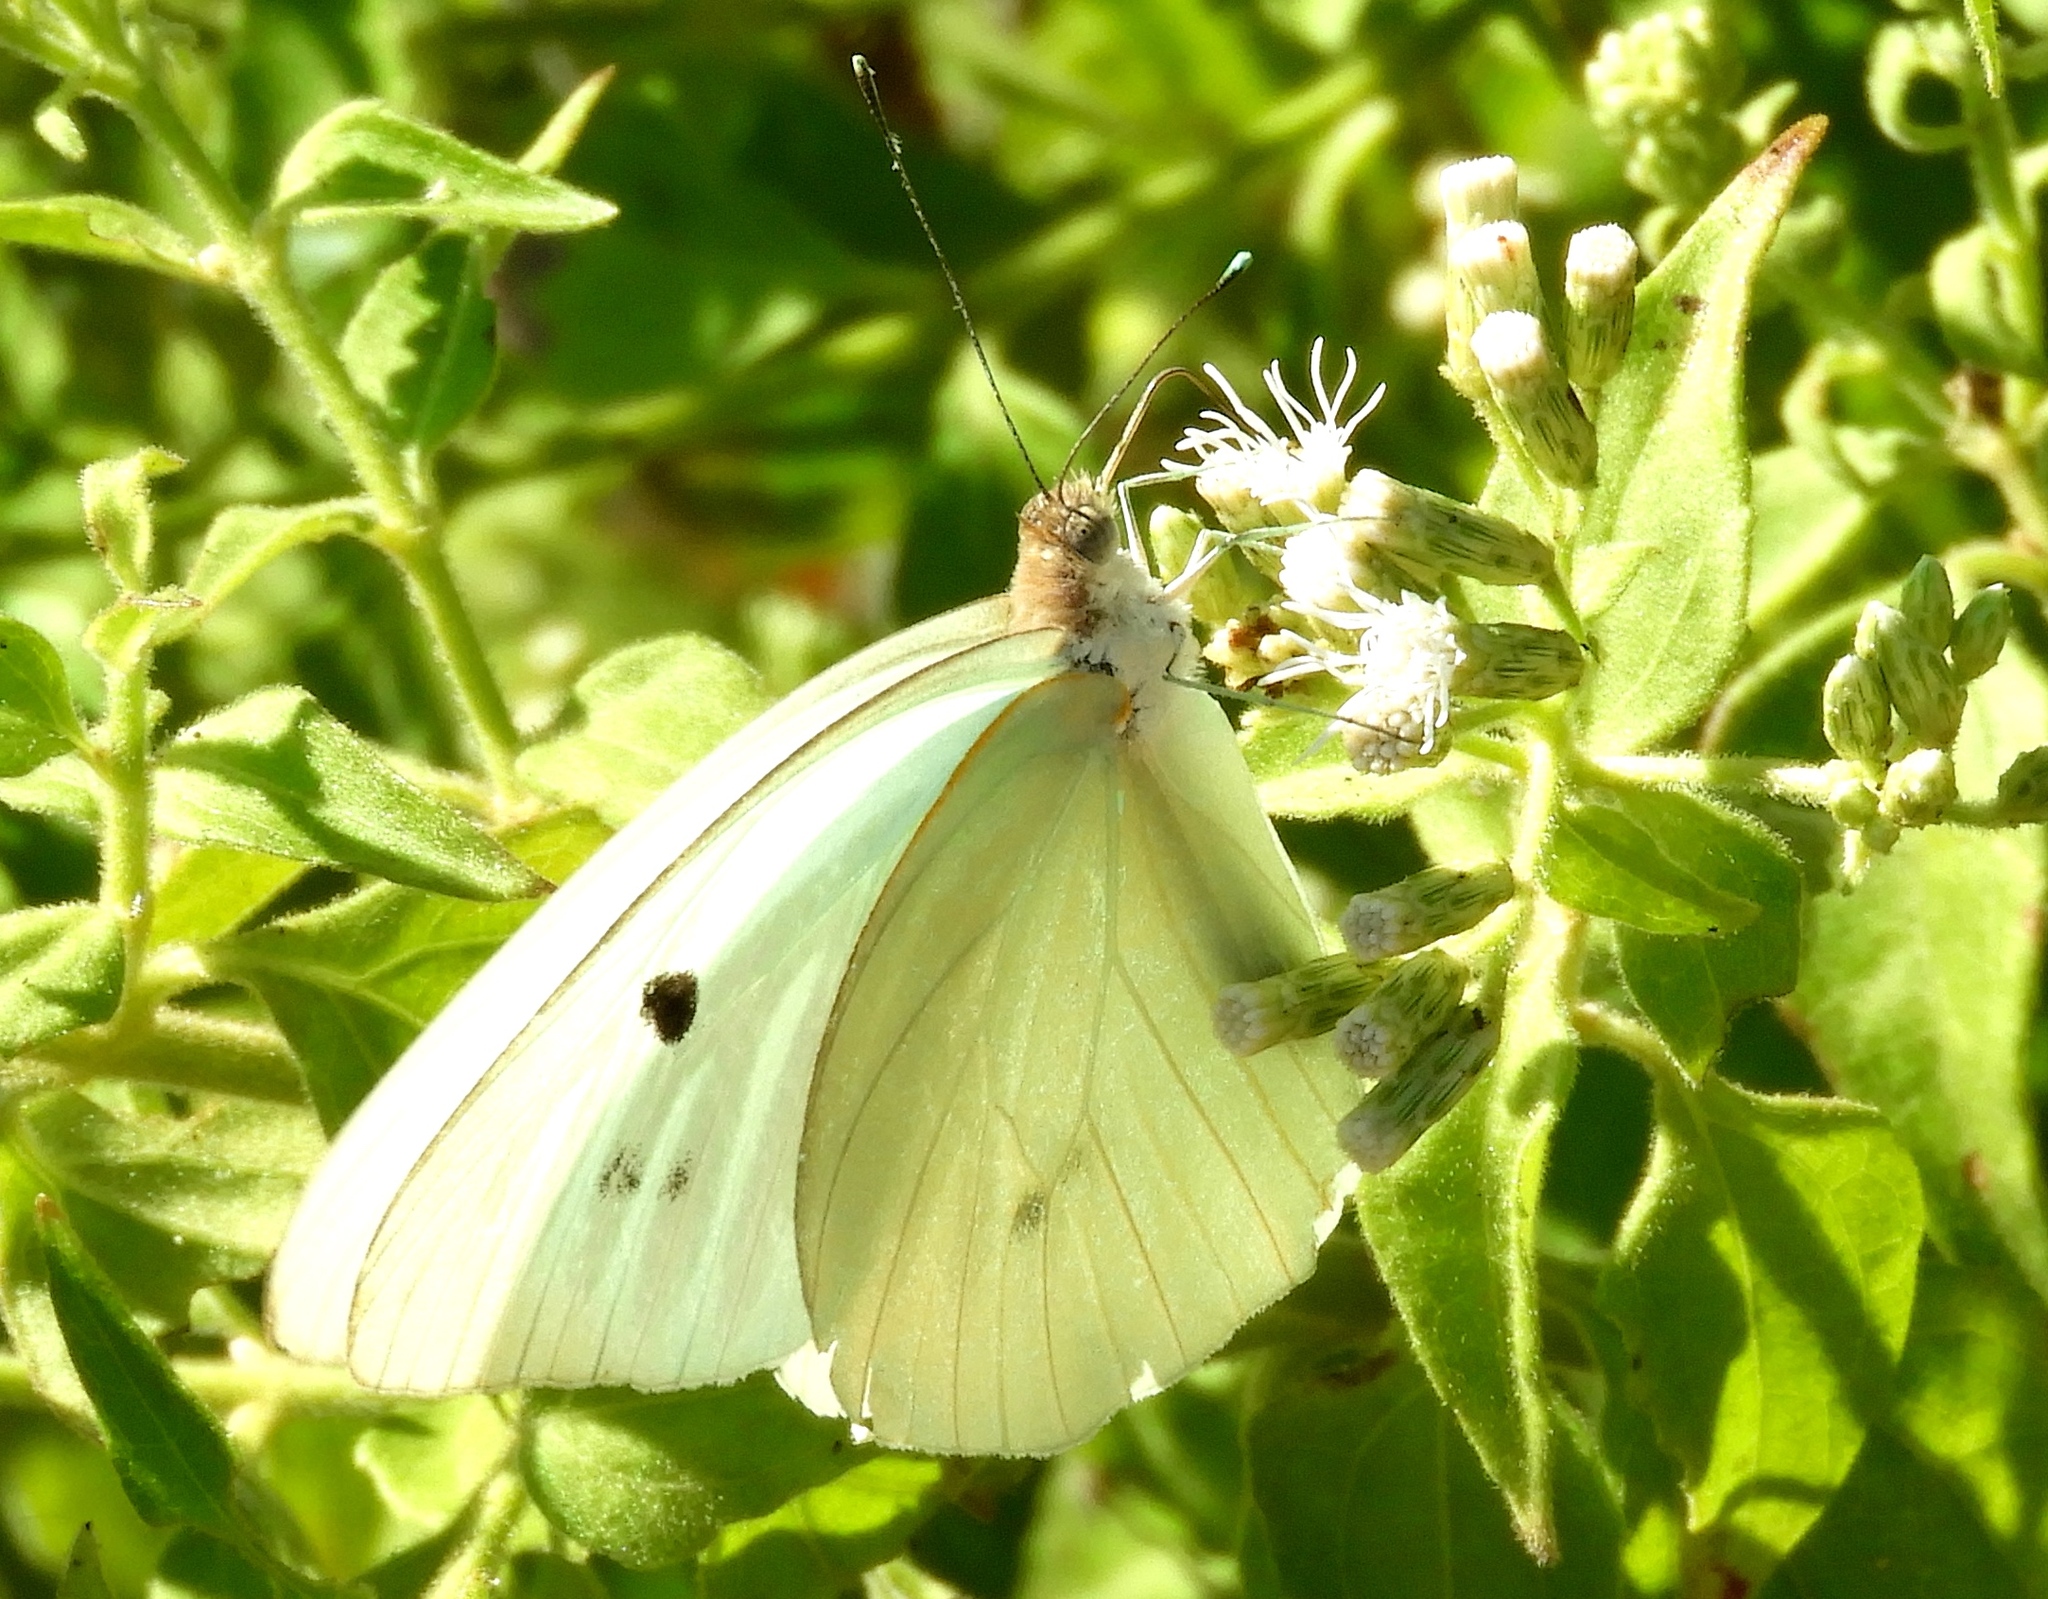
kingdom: Animalia
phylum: Arthropoda
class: Insecta
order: Lepidoptera
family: Pieridae
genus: Ganyra
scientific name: Ganyra josephina
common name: Giant white
